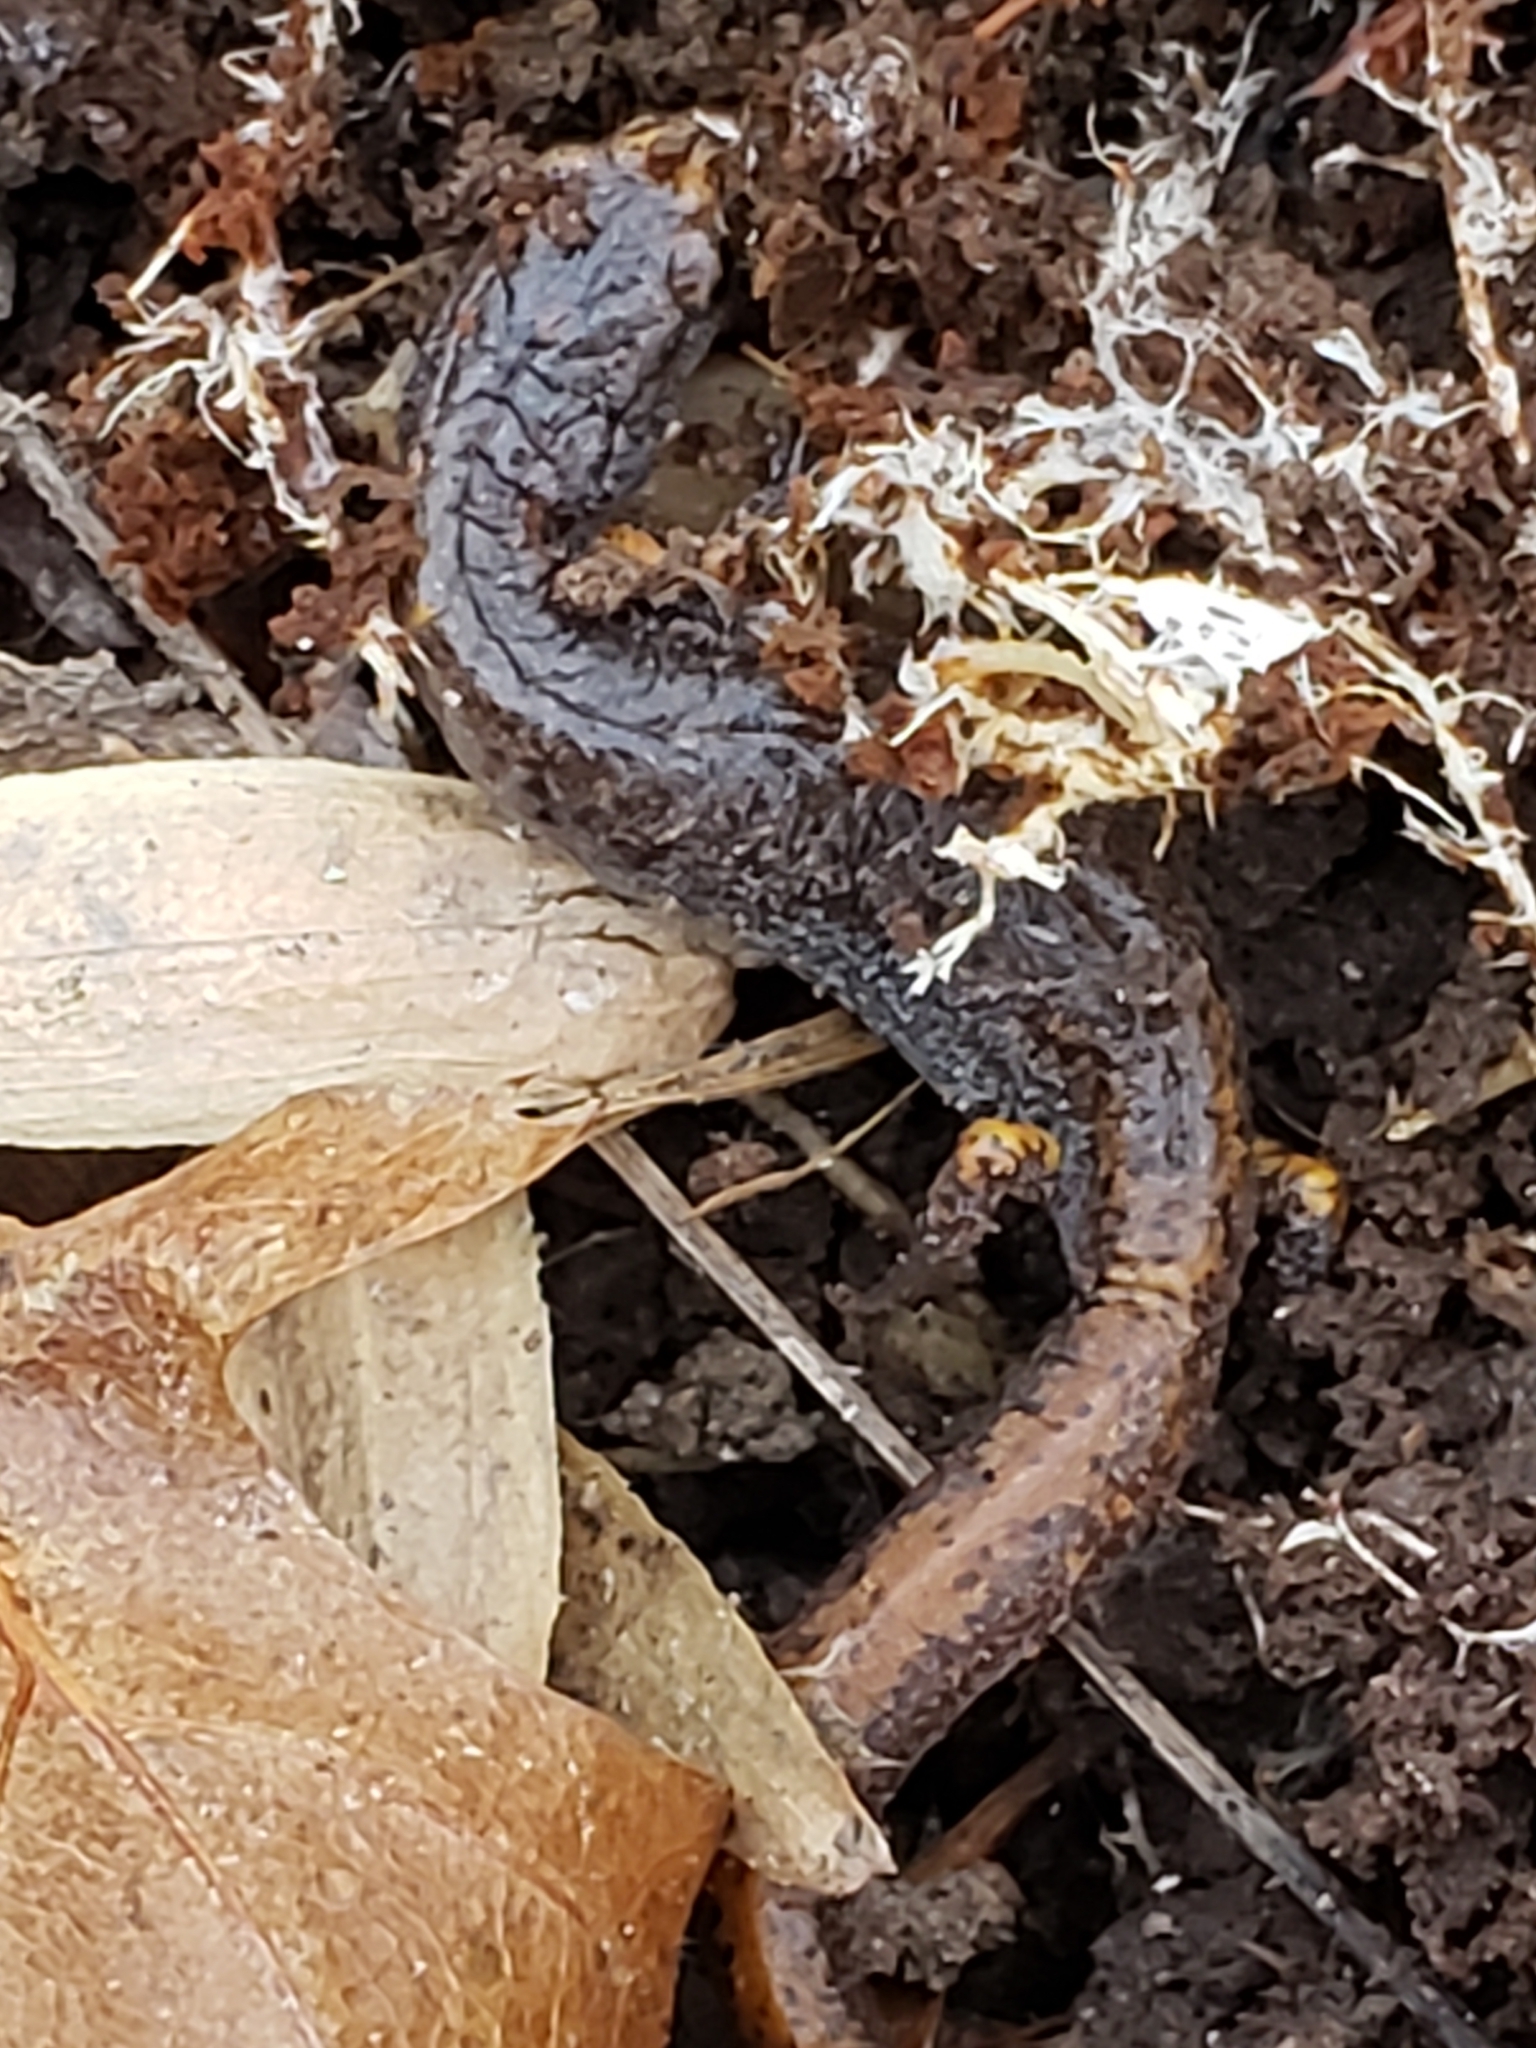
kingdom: Animalia
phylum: Chordata
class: Amphibia
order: Caudata
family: Plethodontidae
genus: Hemidactylium
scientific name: Hemidactylium scutatum
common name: Four-toed salamander
